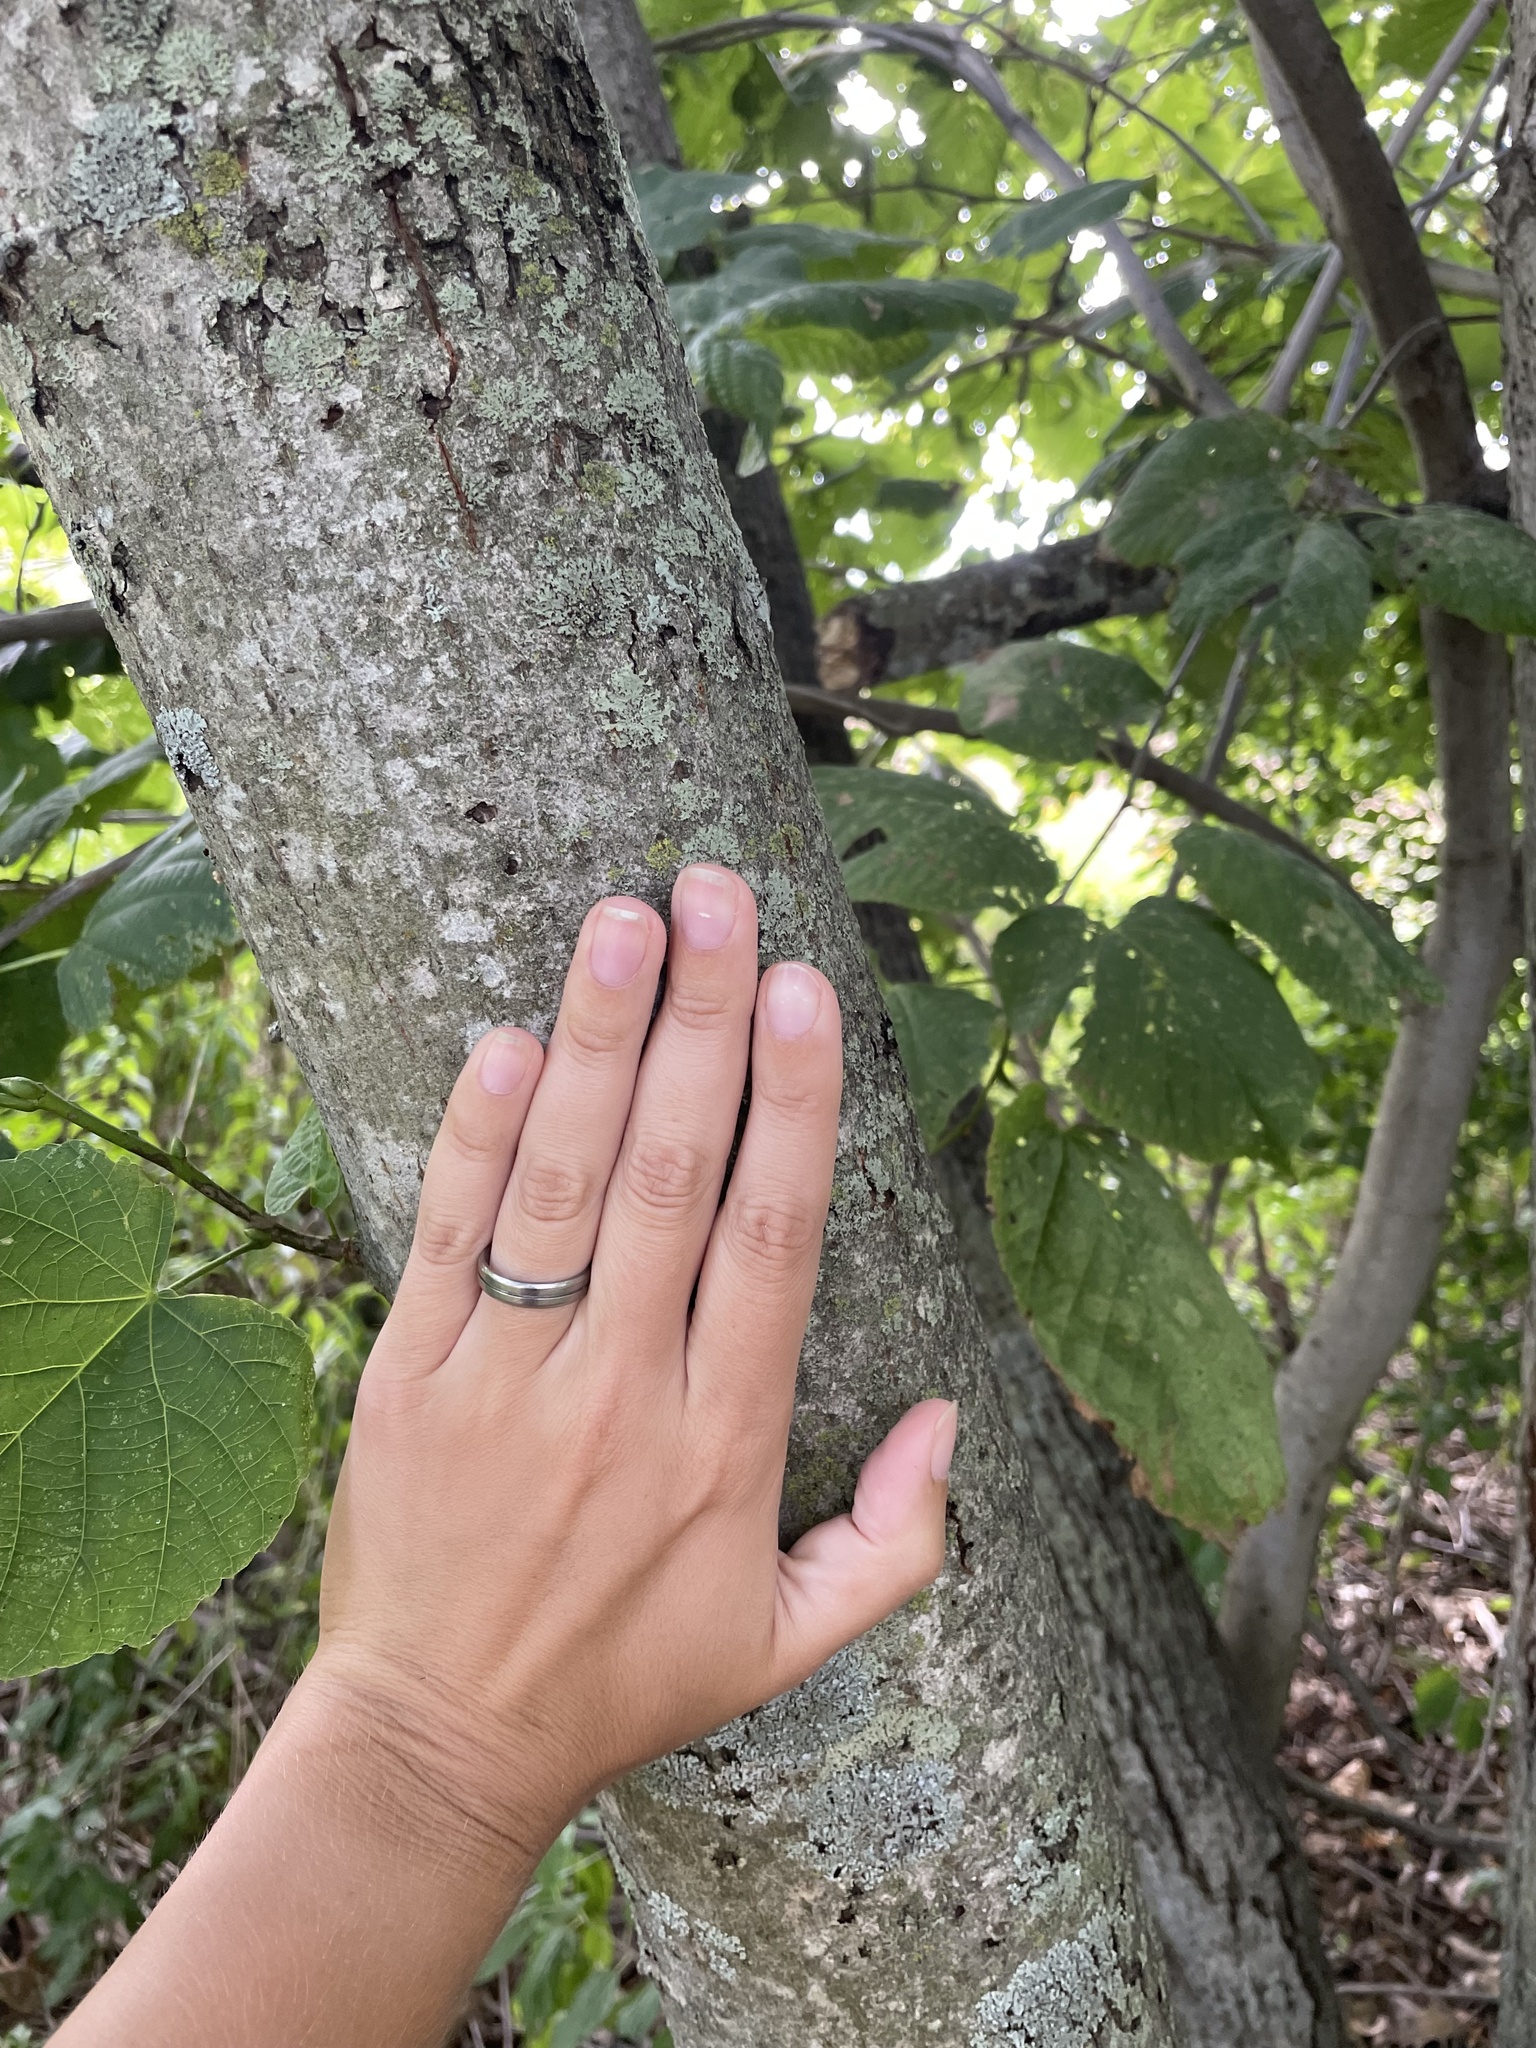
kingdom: Plantae
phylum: Tracheophyta
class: Magnoliopsida
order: Malvales
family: Malvaceae
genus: Tilia
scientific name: Tilia americana
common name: Basswood
